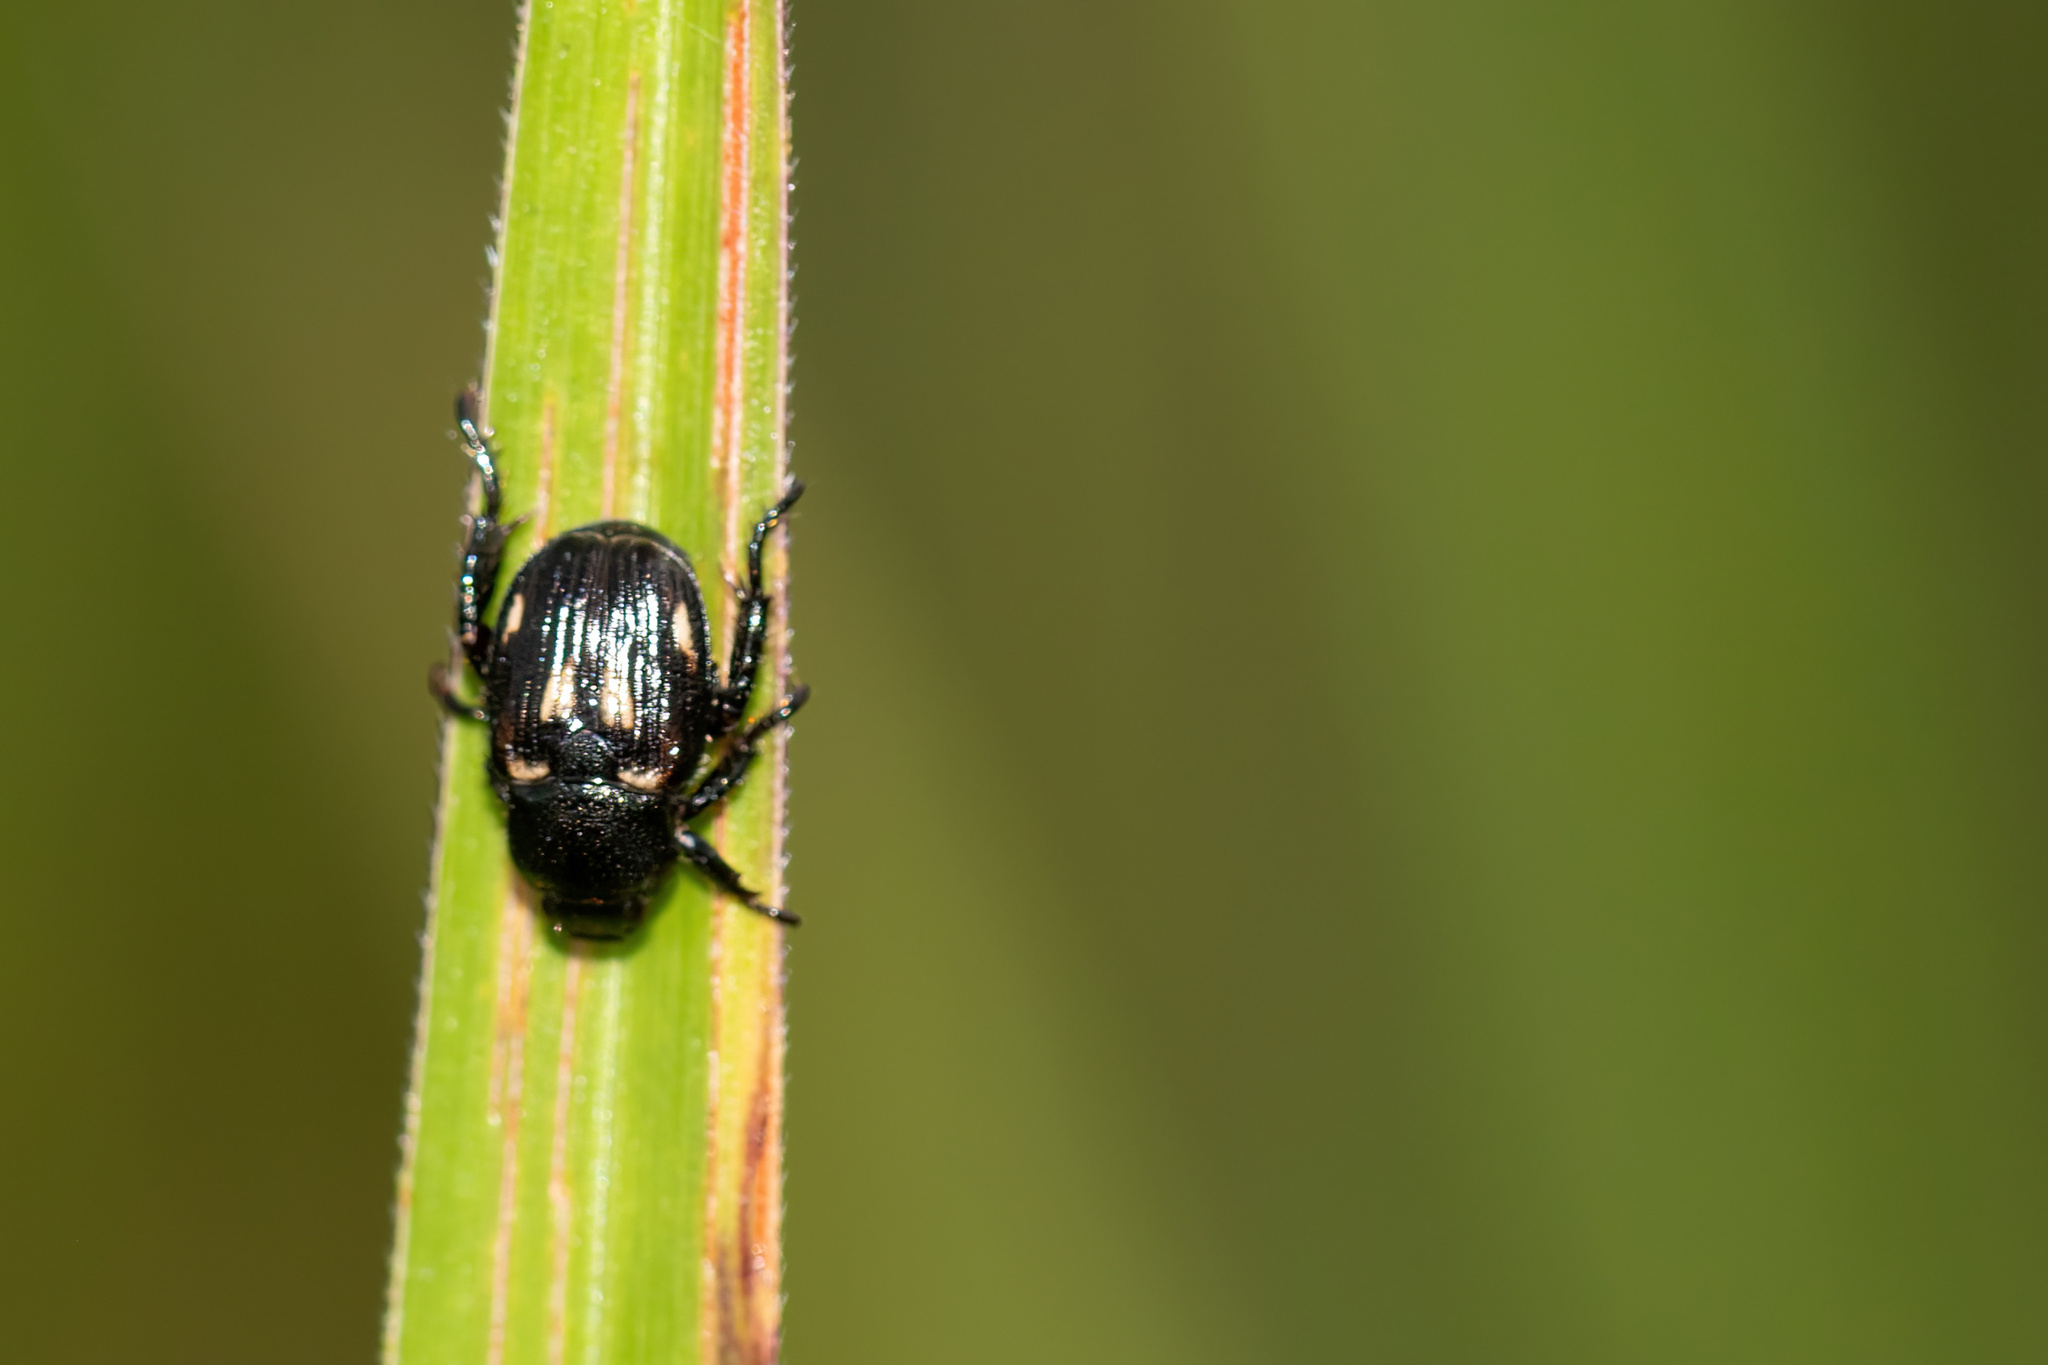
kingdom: Animalia
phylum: Arthropoda
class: Insecta
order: Coleoptera
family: Scarabaeidae
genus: Strigoderma
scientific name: Strigoderma pygmaea
